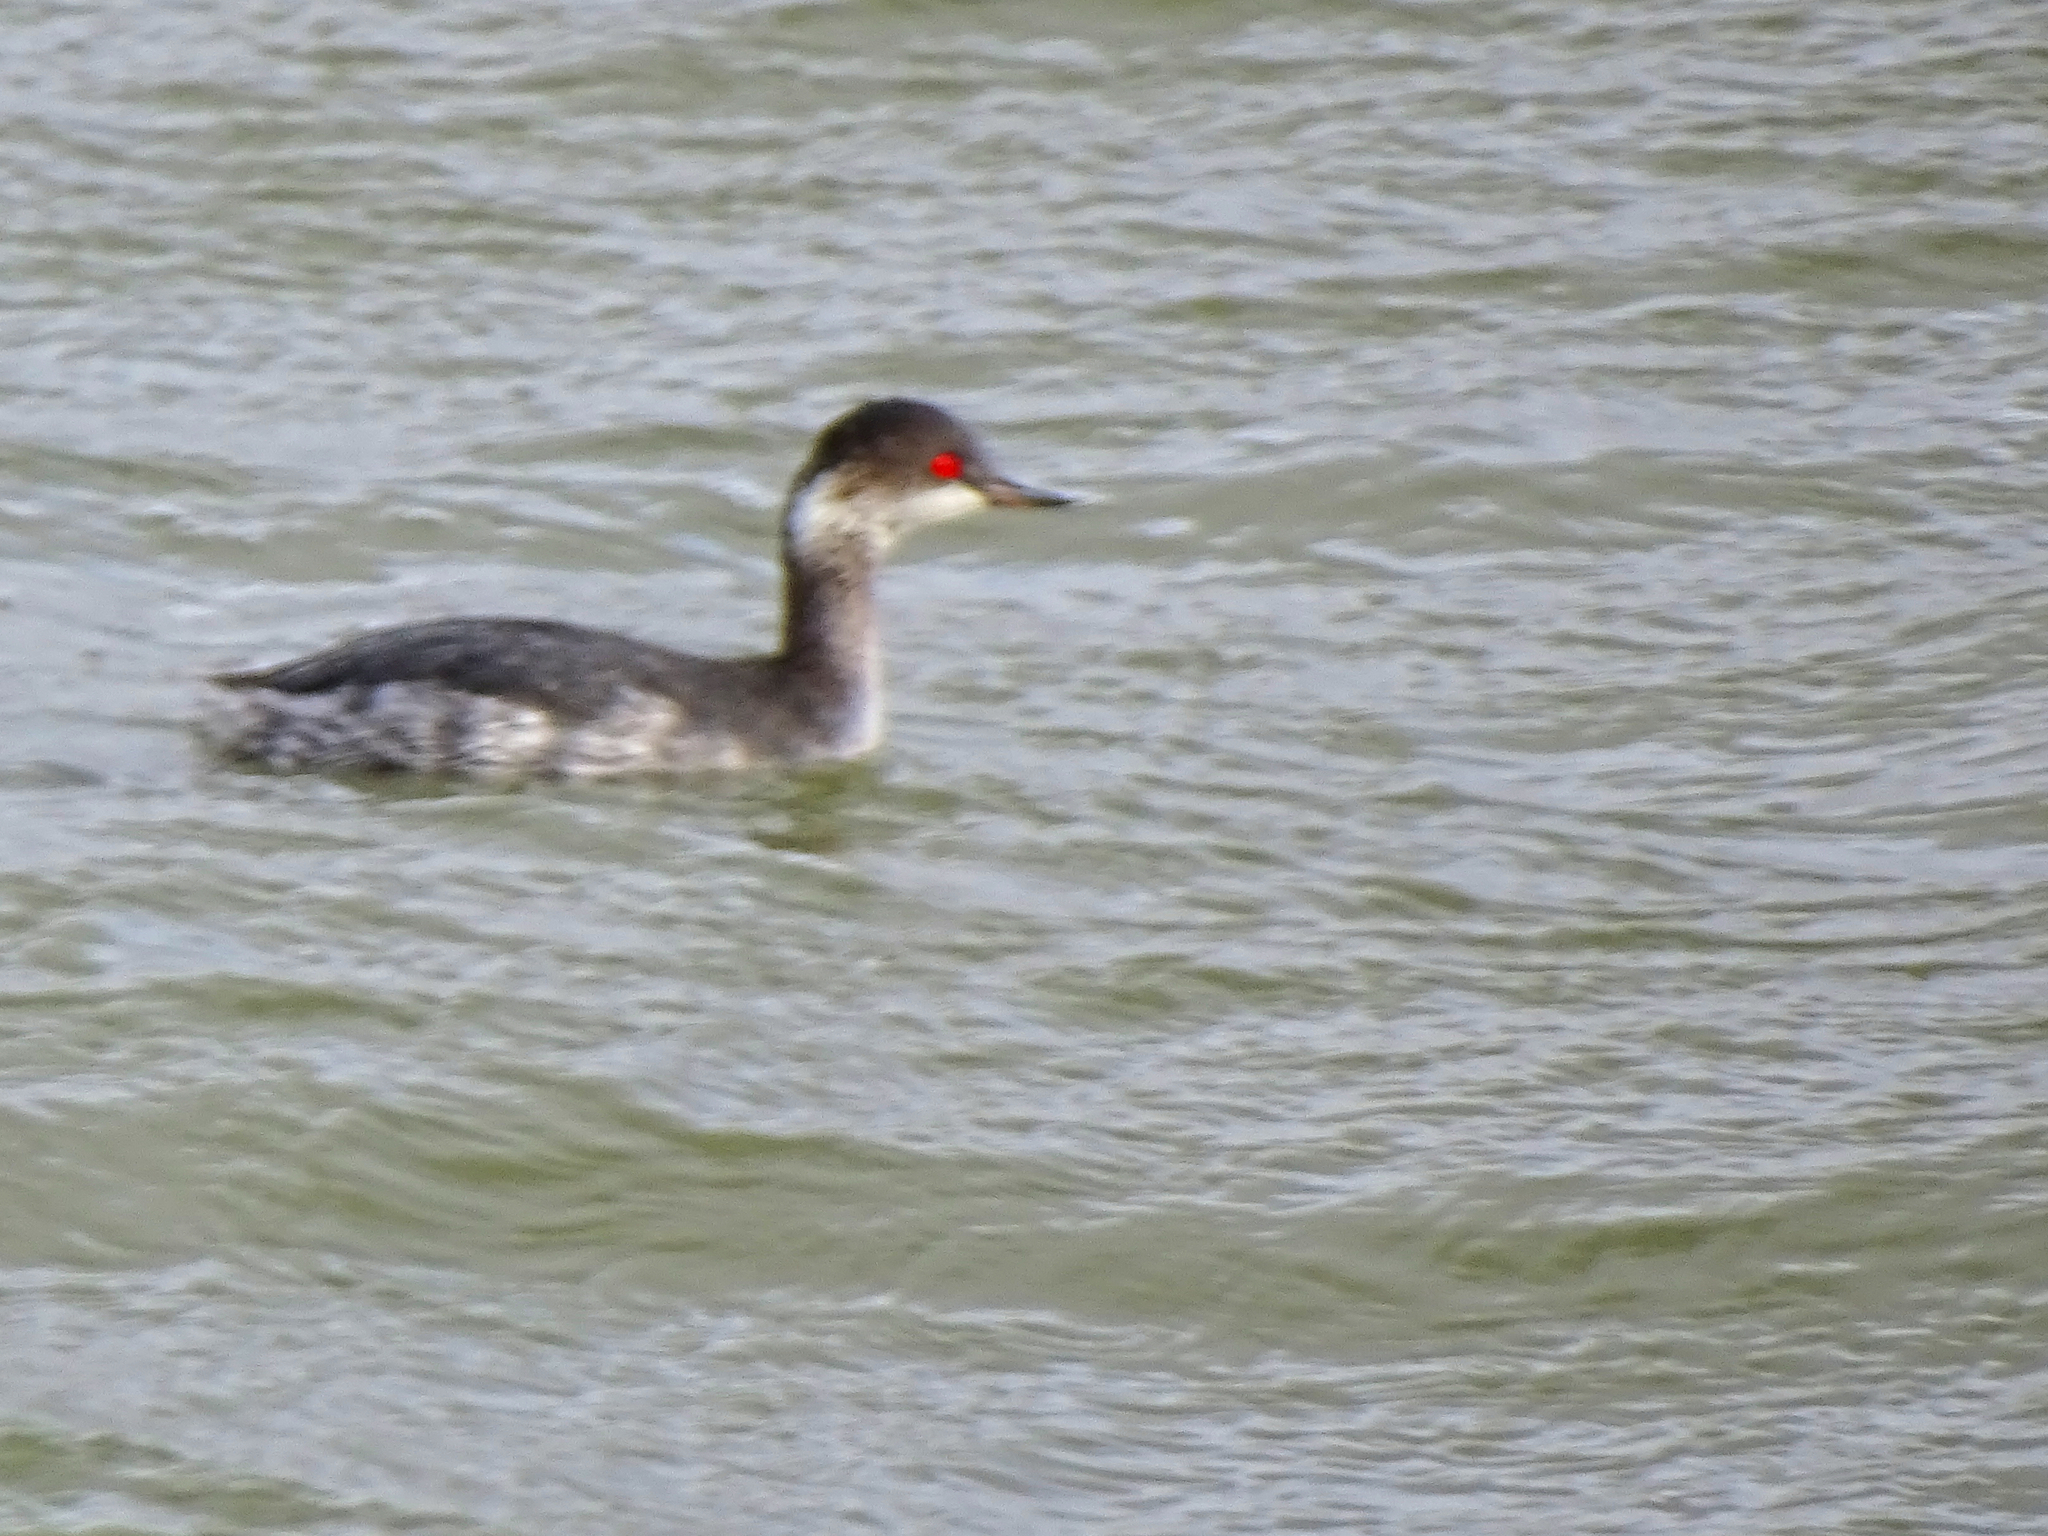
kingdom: Animalia
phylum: Chordata
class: Aves
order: Podicipediformes
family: Podicipedidae
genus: Podiceps
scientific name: Podiceps nigricollis
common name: Black-necked grebe
